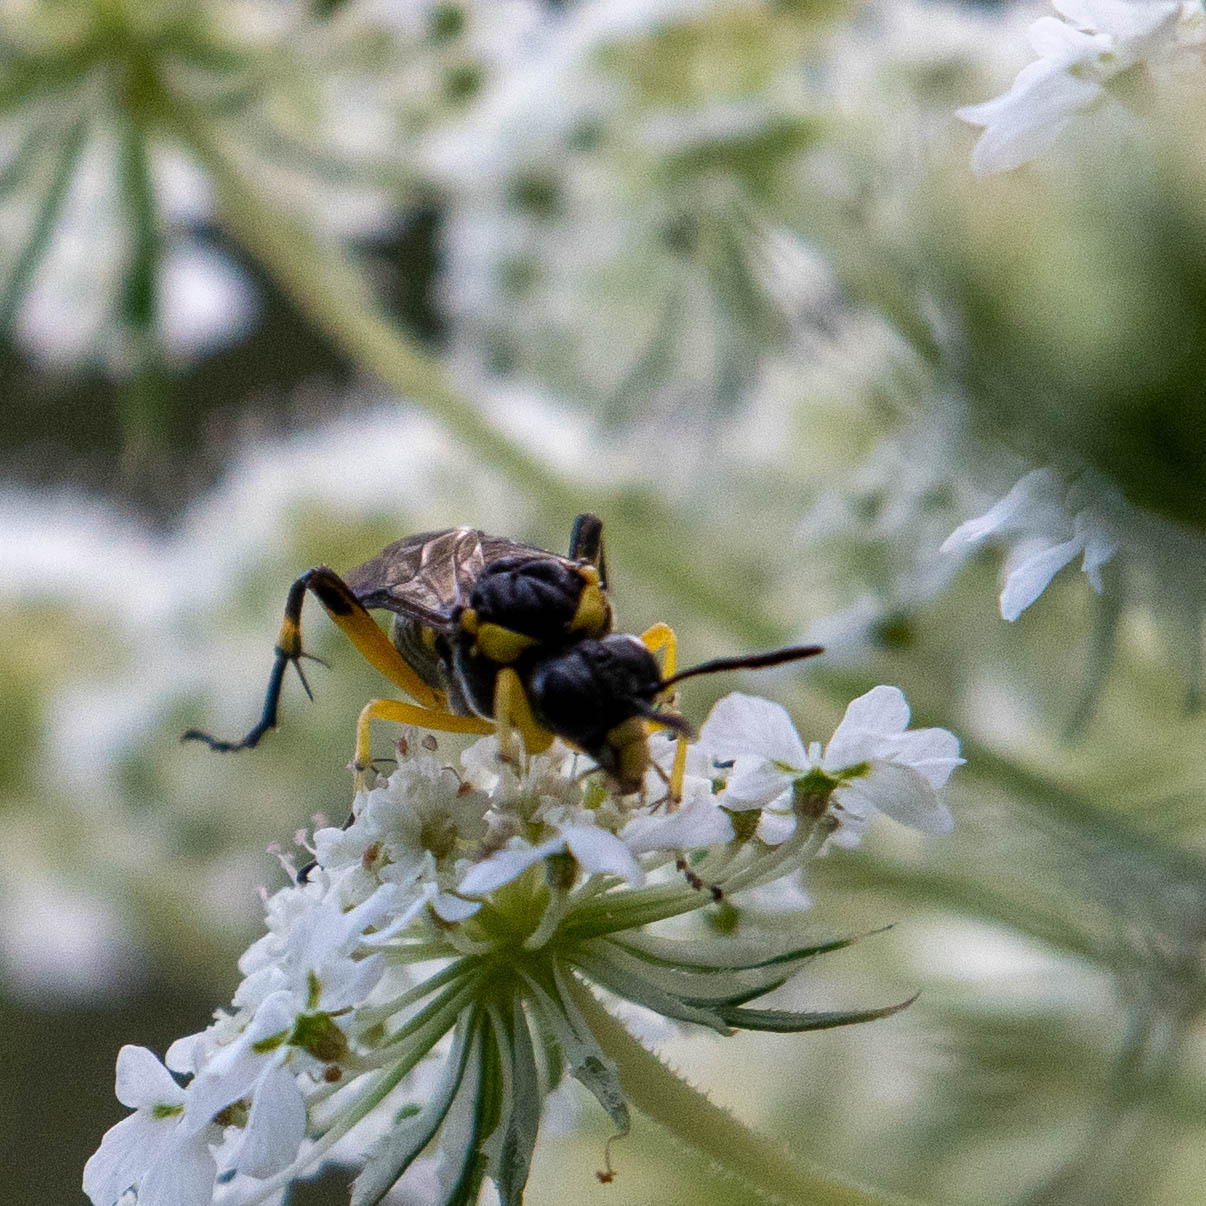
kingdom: Animalia
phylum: Arthropoda
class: Insecta
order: Hymenoptera
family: Tenthredinidae
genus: Macrophya
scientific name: Macrophya montana
